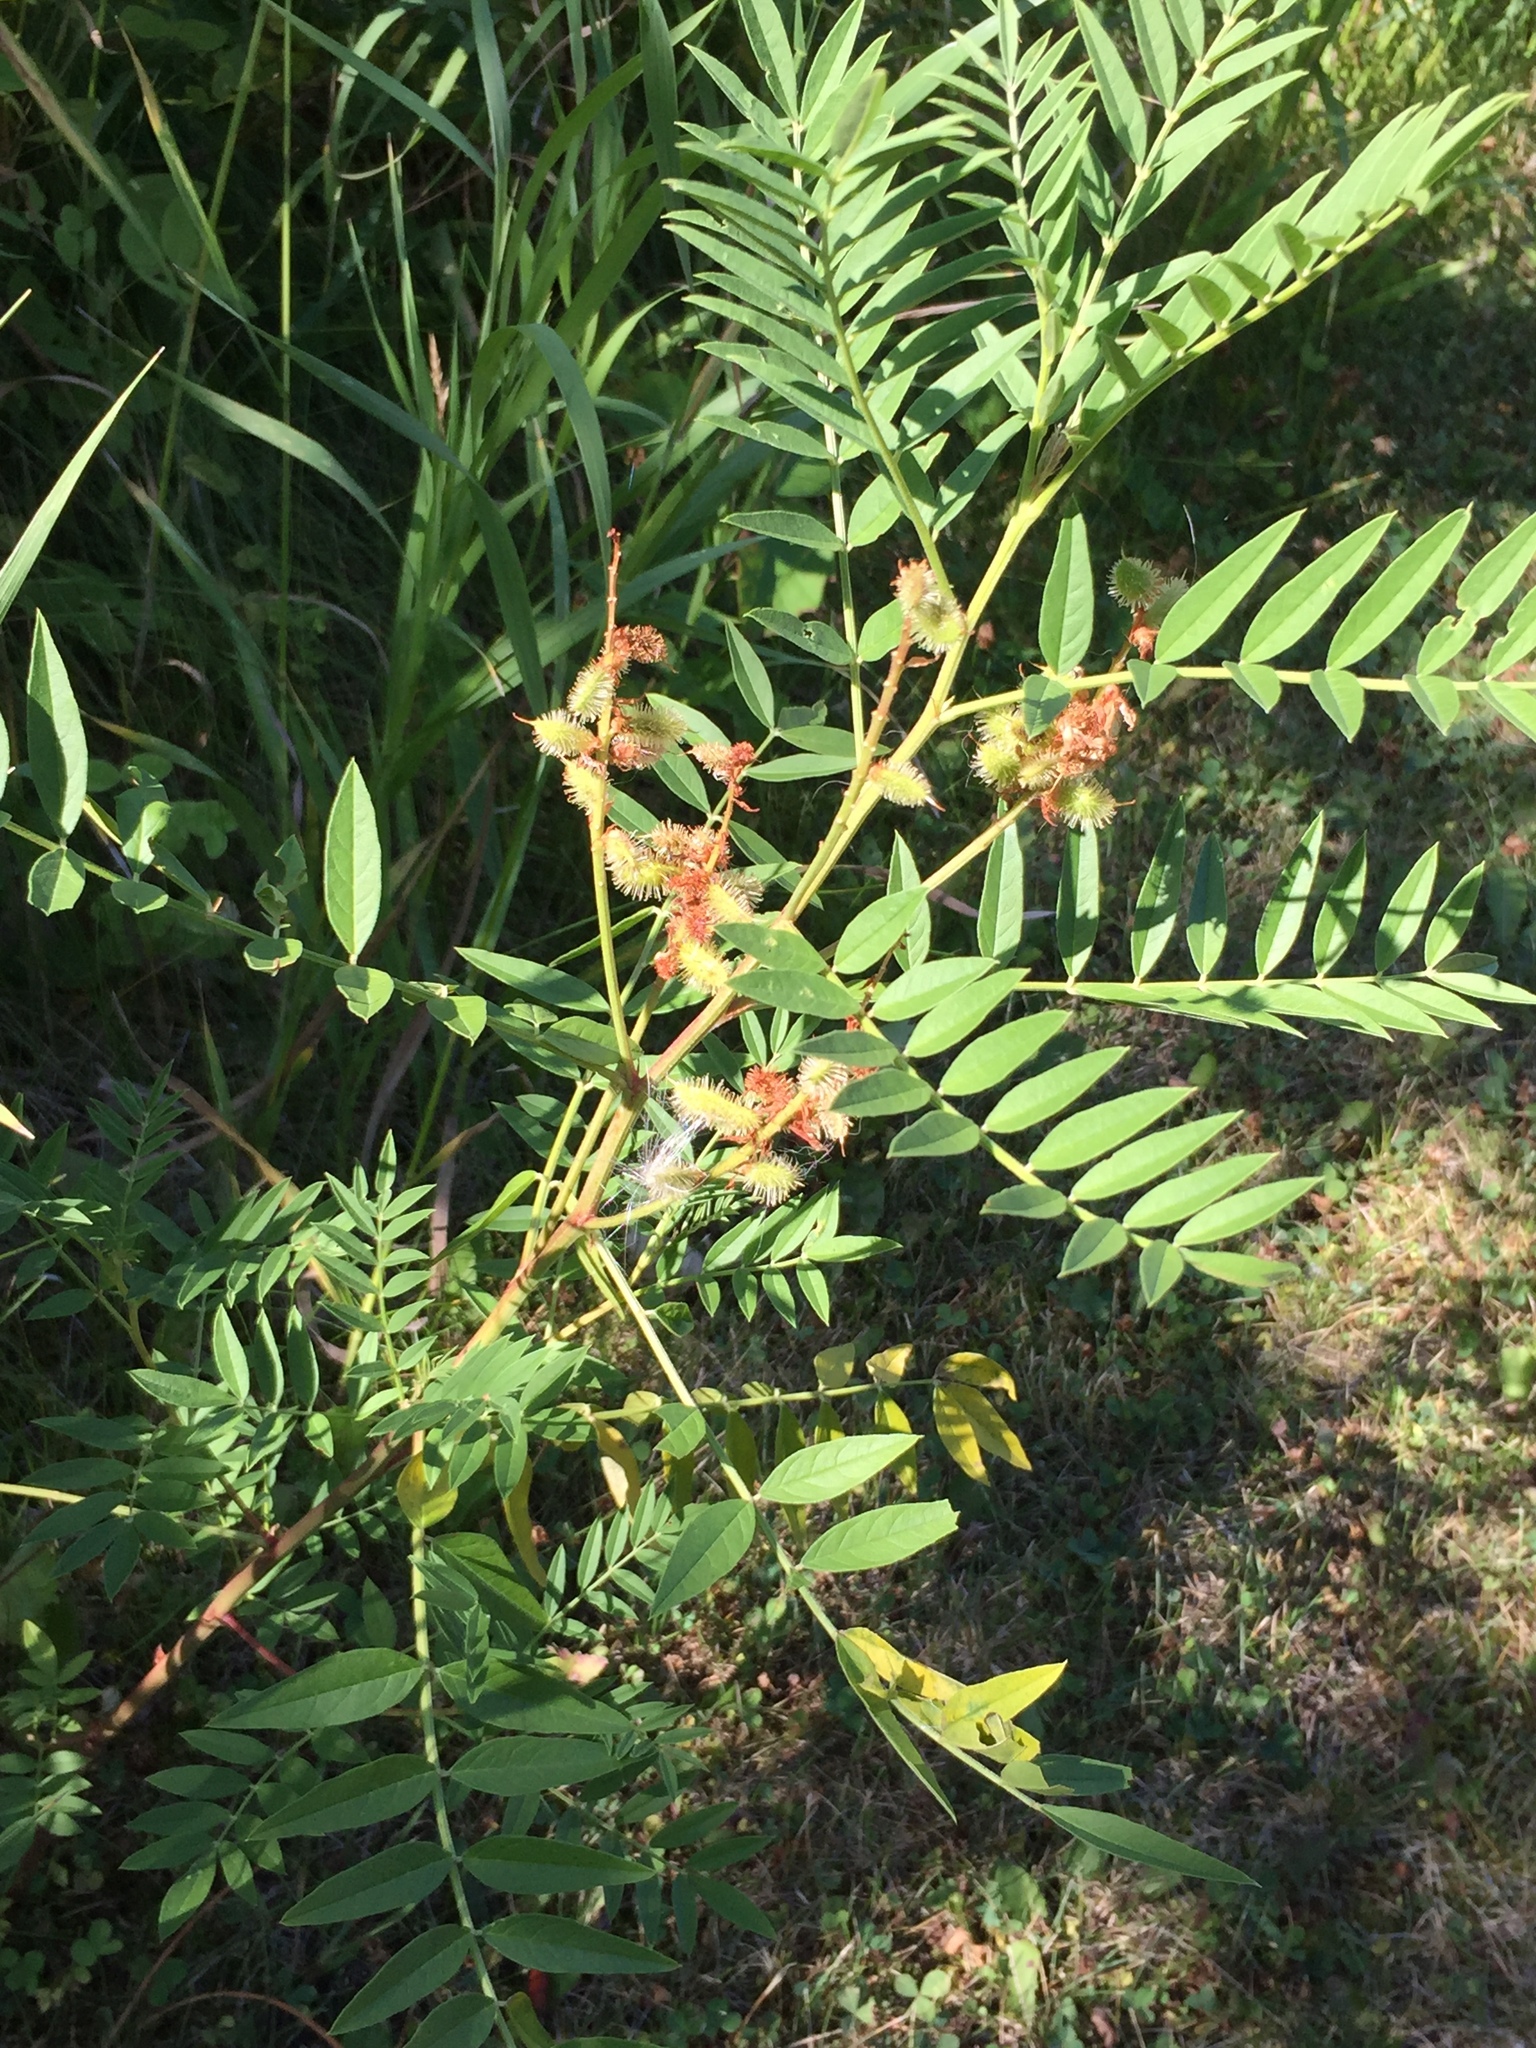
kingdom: Plantae
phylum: Tracheophyta
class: Magnoliopsida
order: Fabales
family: Fabaceae
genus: Glycyrrhiza
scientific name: Glycyrrhiza lepidota
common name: American liquorice
